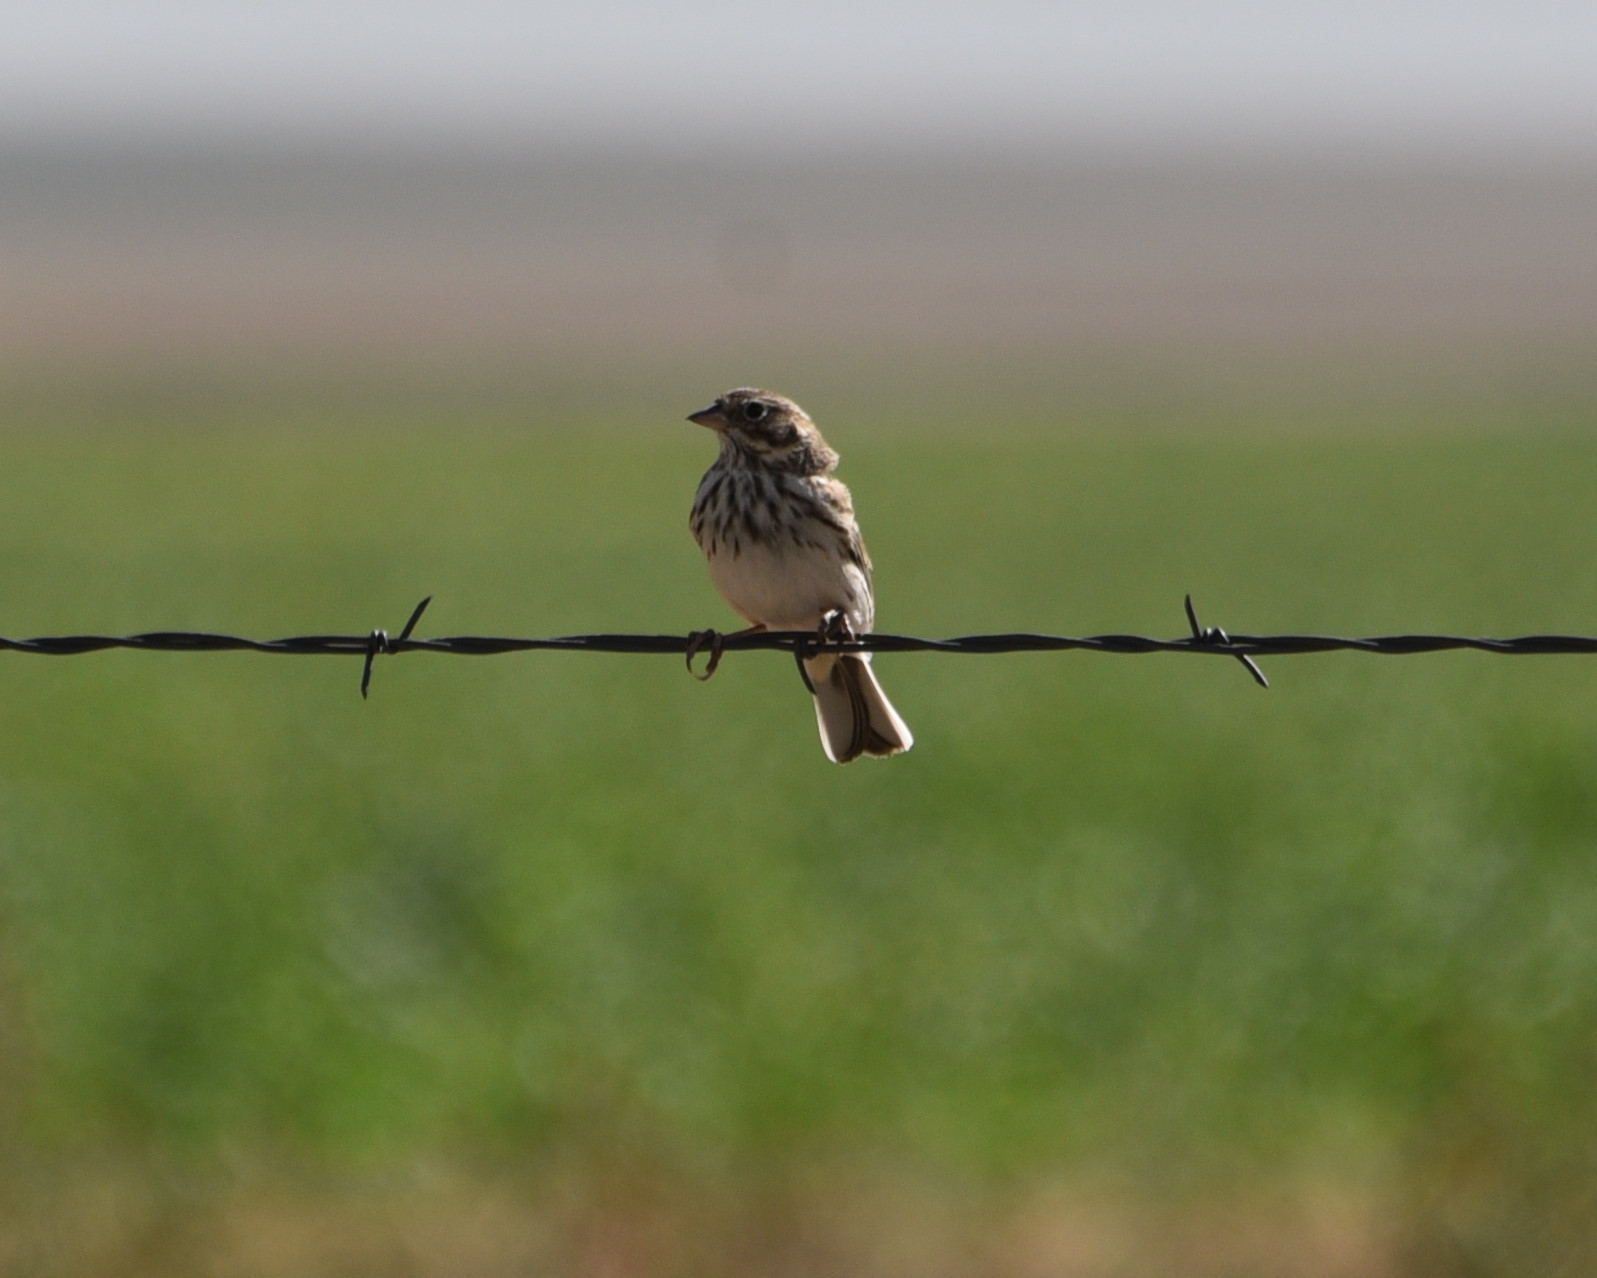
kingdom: Animalia
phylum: Chordata
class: Aves
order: Passeriformes
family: Passerellidae
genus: Pooecetes
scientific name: Pooecetes gramineus
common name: Vesper sparrow
